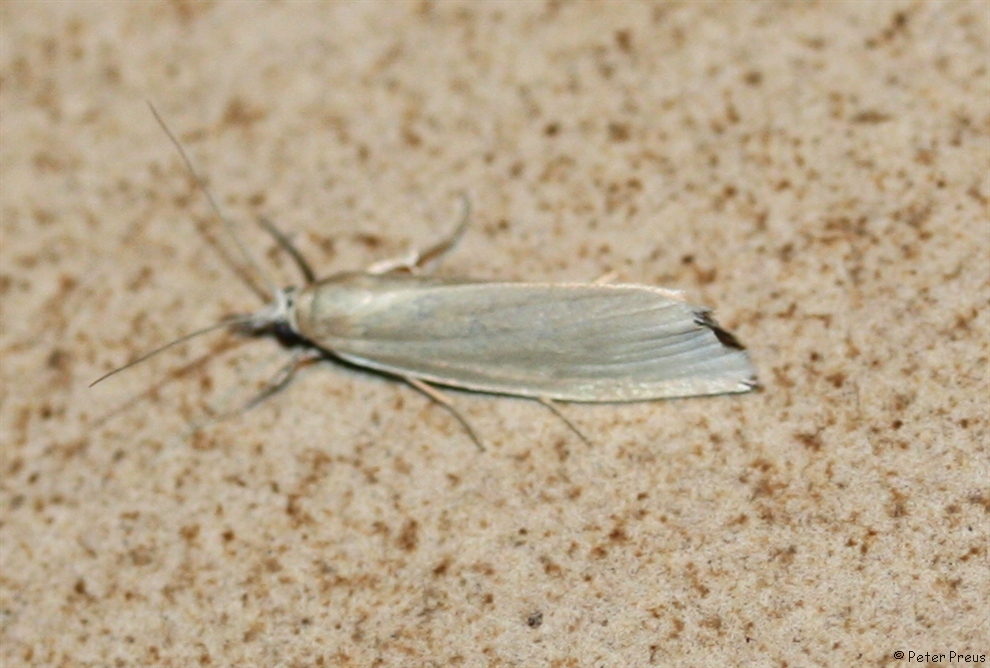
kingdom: Animalia
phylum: Arthropoda
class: Insecta
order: Lepidoptera
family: Crambidae
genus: Chilo
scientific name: Chilo phragmitella
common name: Reed veneer
